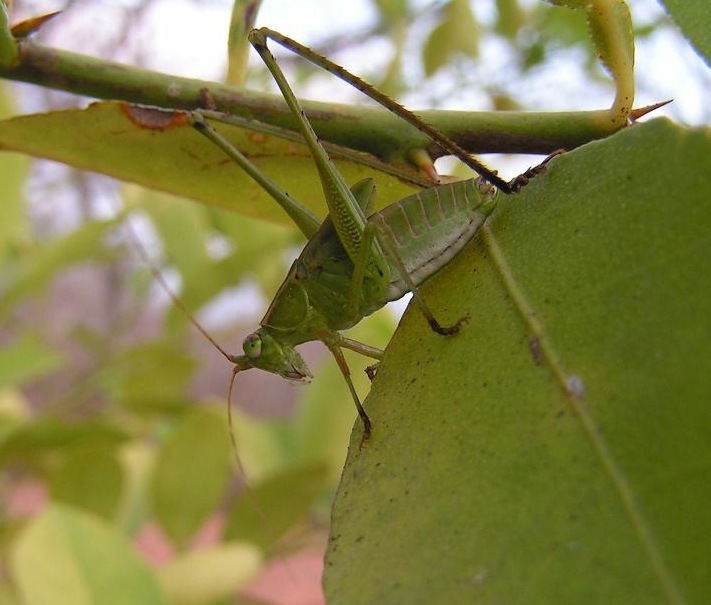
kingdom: Animalia
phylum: Arthropoda
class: Insecta
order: Orthoptera
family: Tettigoniidae
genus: Scudderia
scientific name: Scudderia
